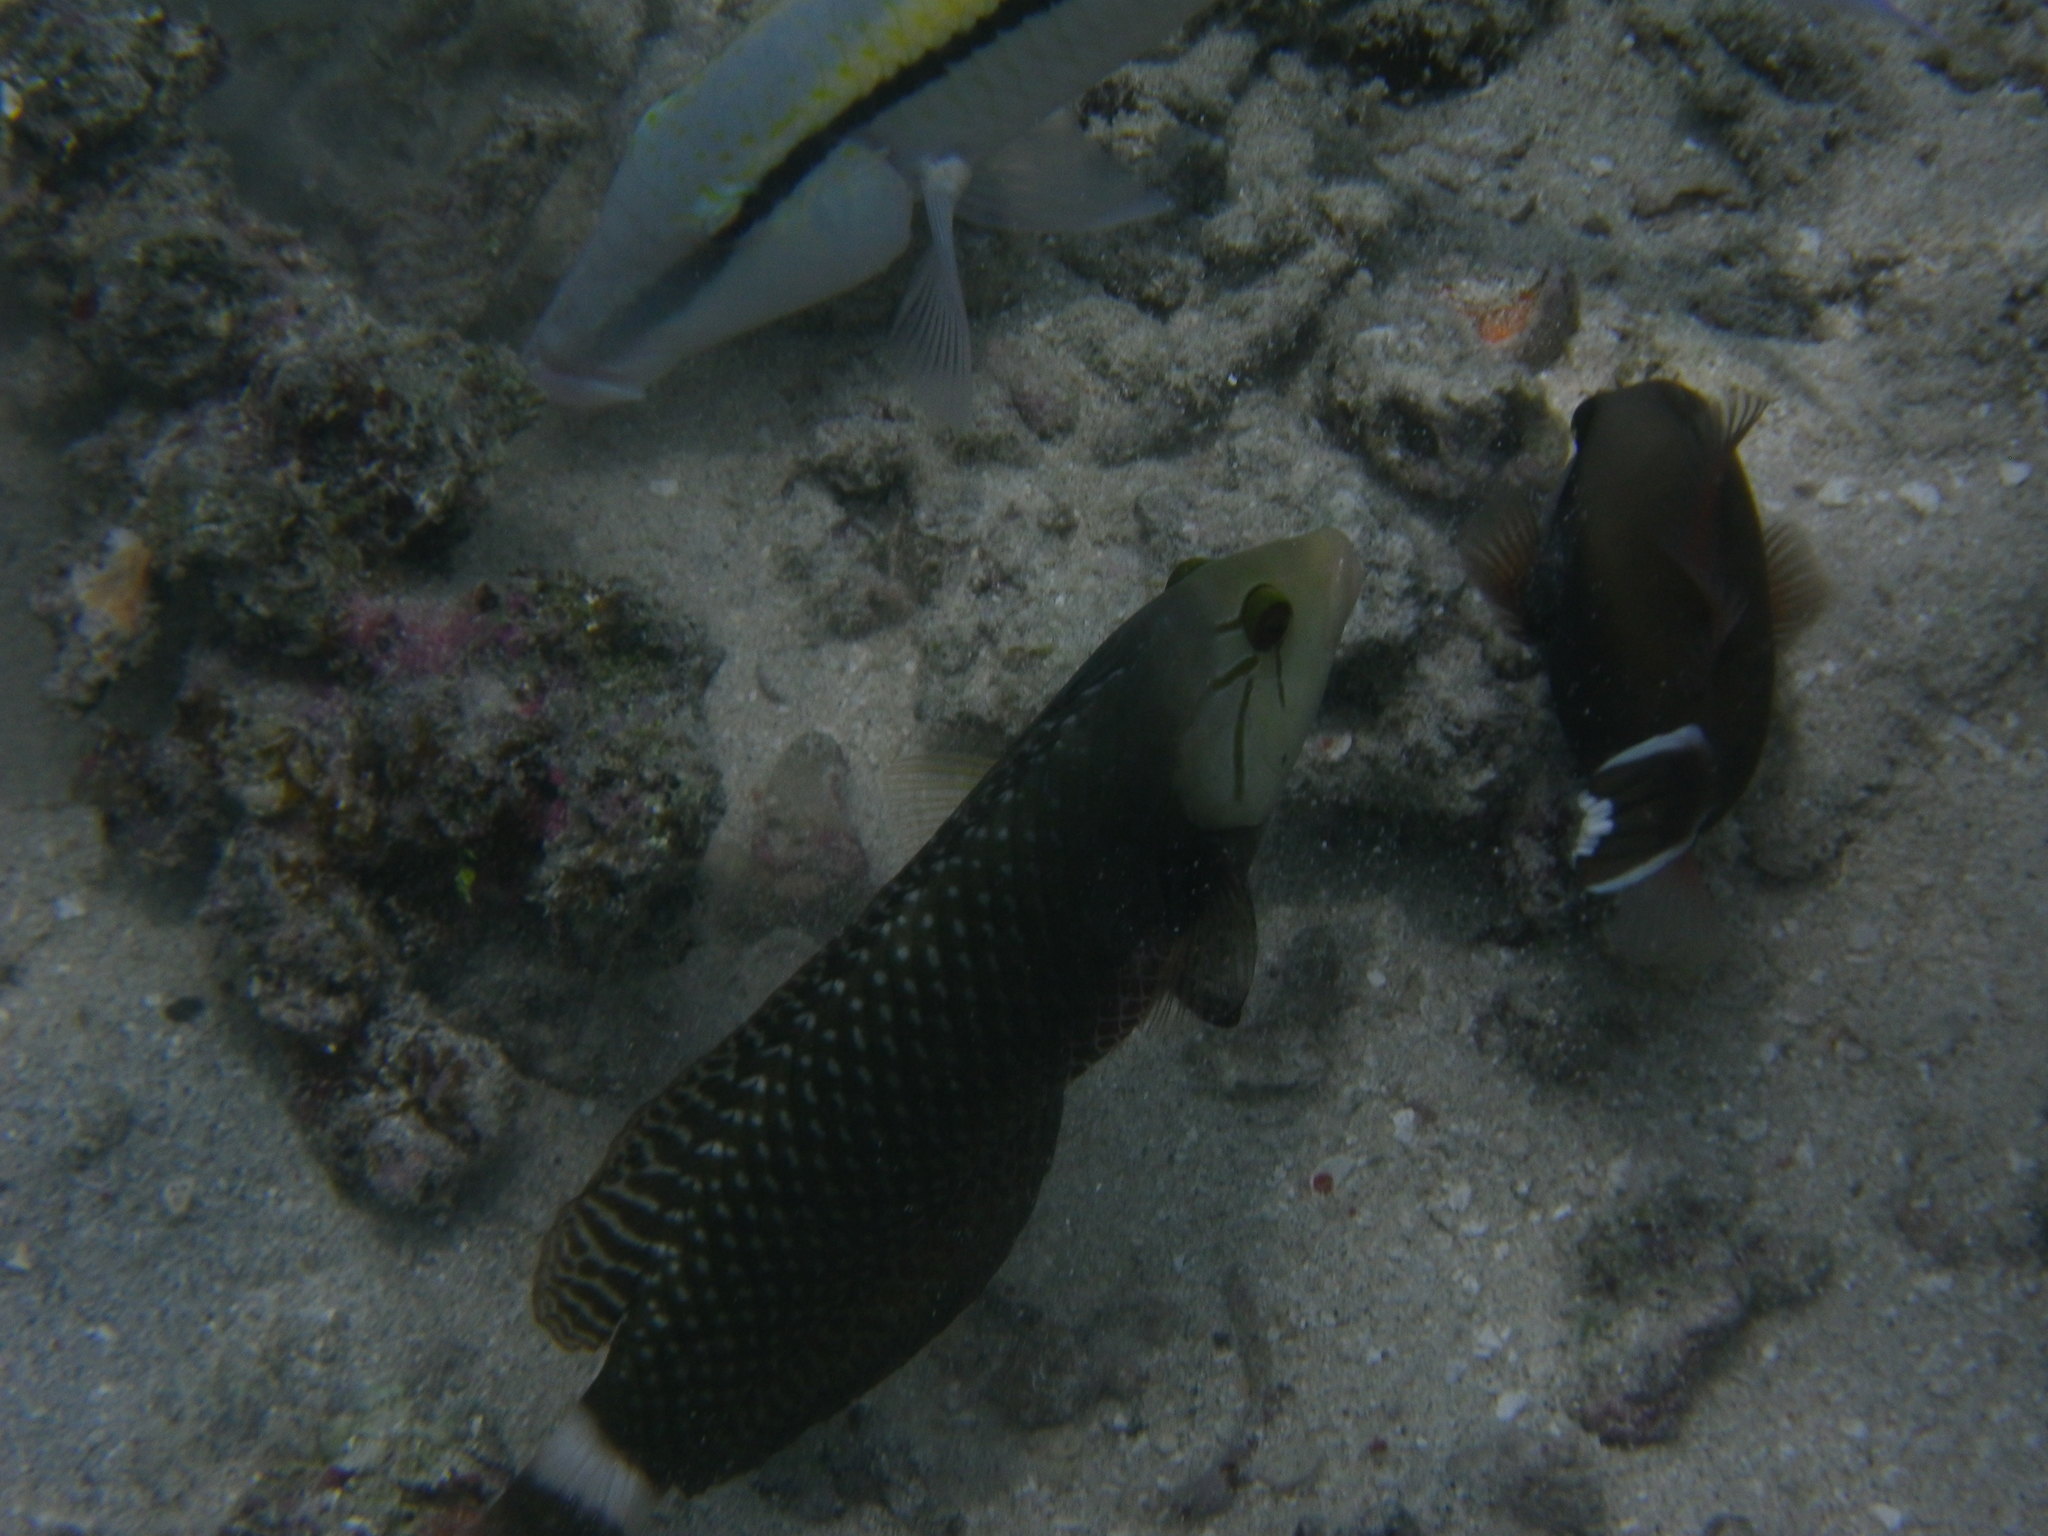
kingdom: Animalia
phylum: Chordata
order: Perciformes
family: Labridae
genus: Novaculichthys
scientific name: Novaculichthys taeniourus
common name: Rockmover wrasse
